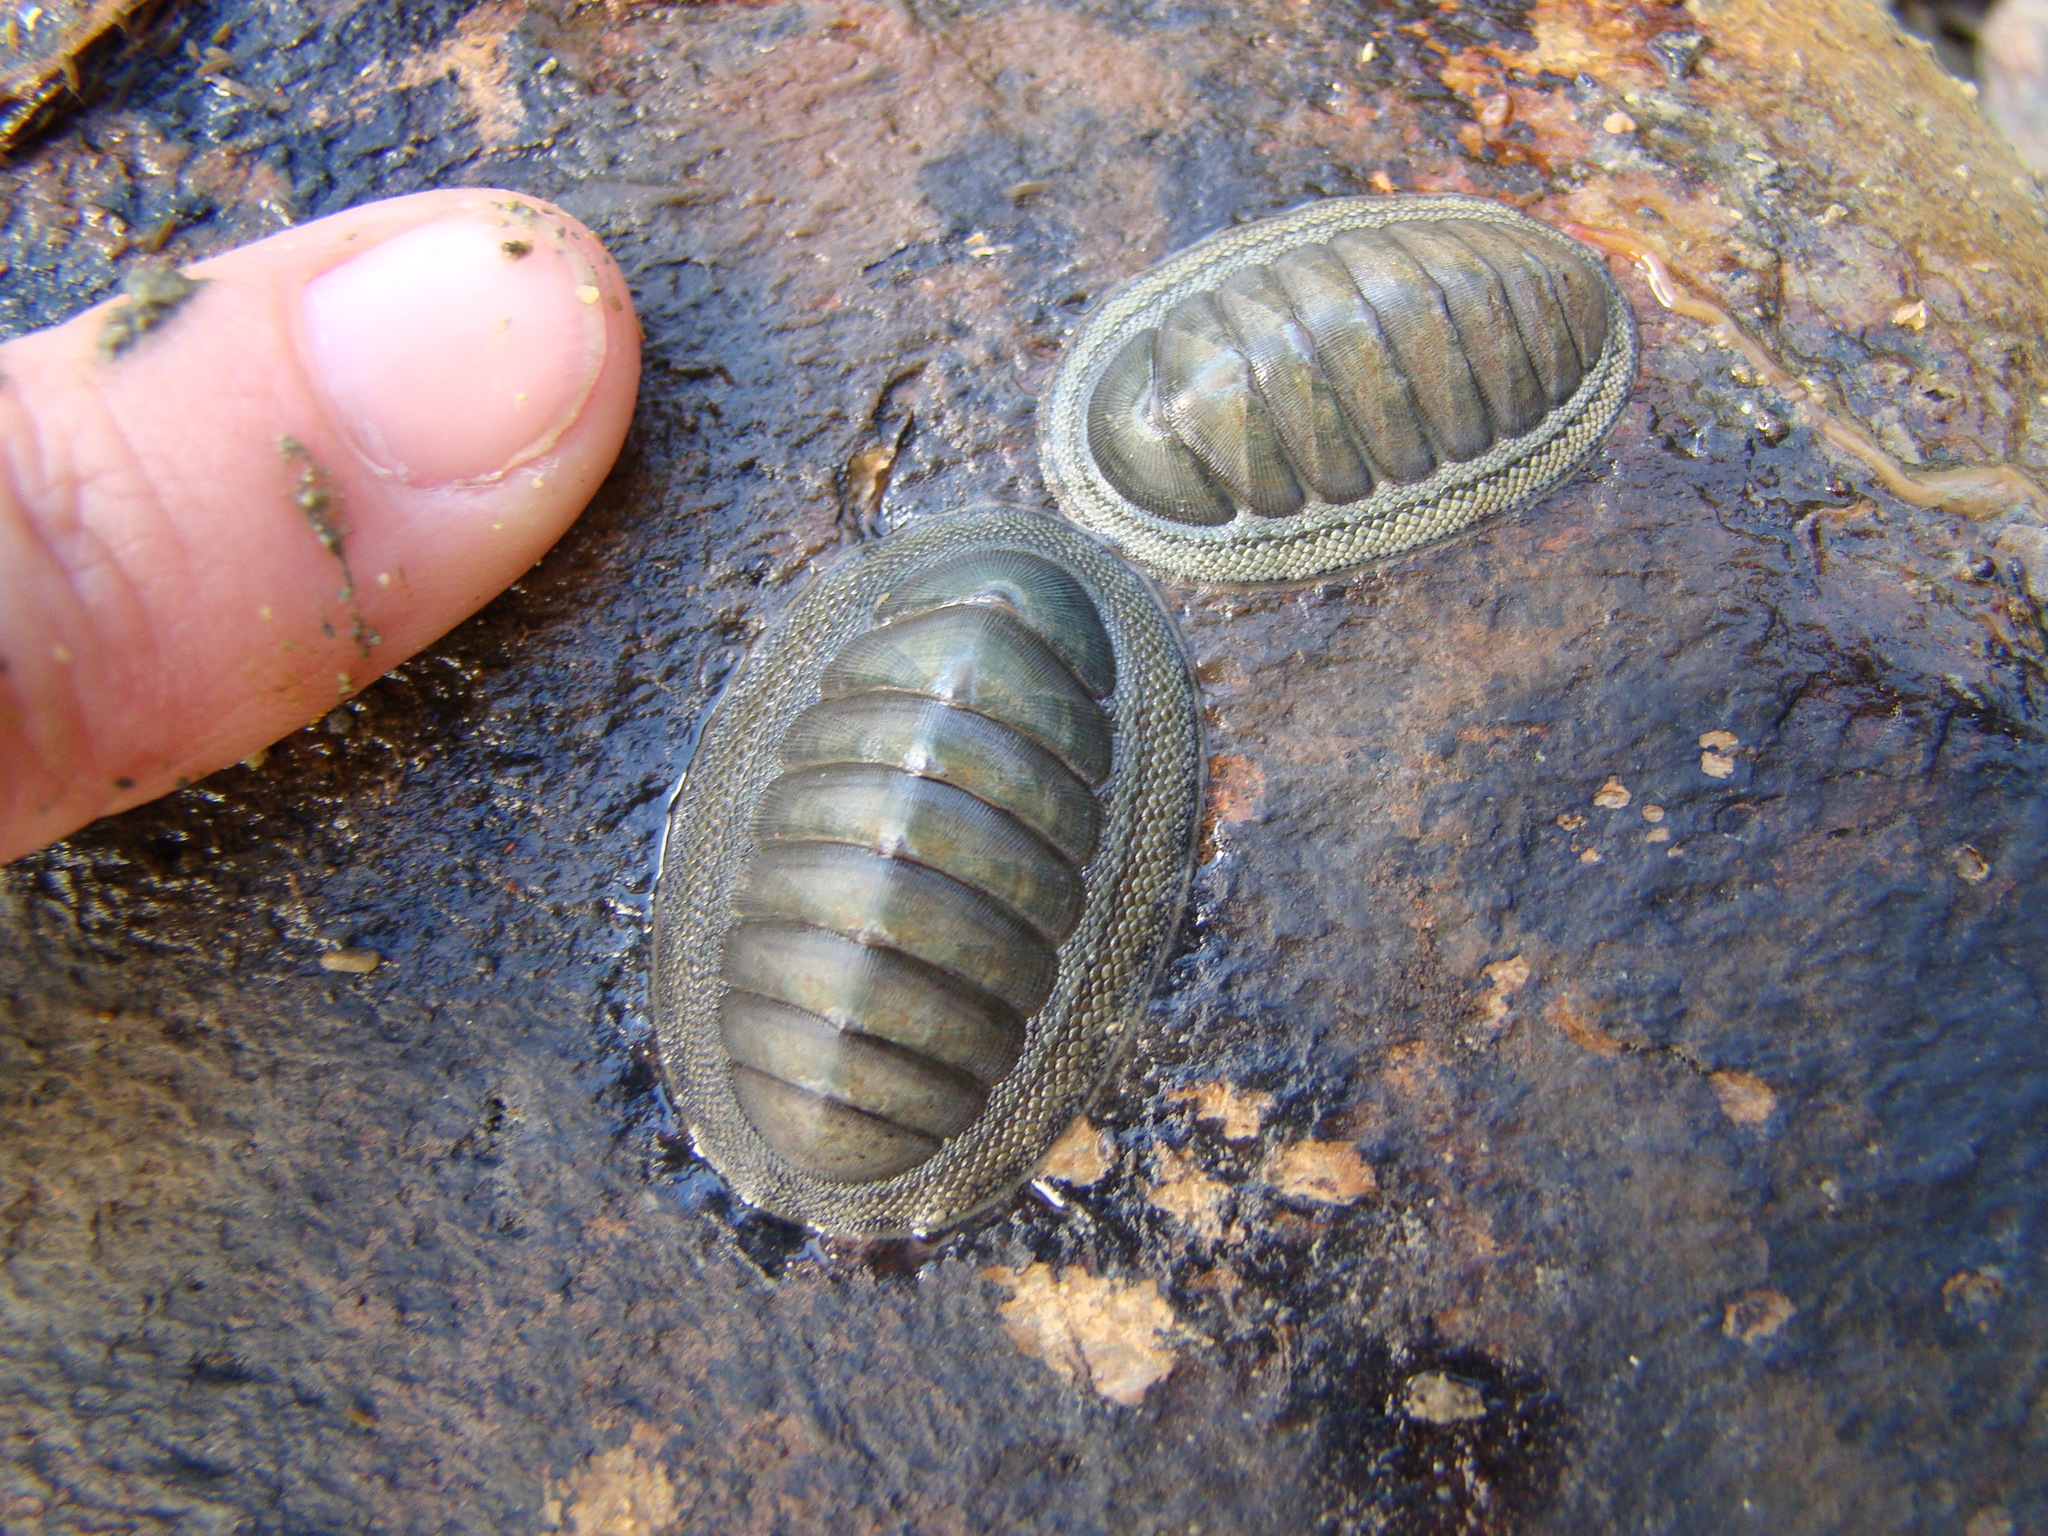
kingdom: Animalia
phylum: Mollusca
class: Polyplacophora
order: Chitonida
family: Chitonidae
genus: Chiton
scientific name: Chiton glaucus
